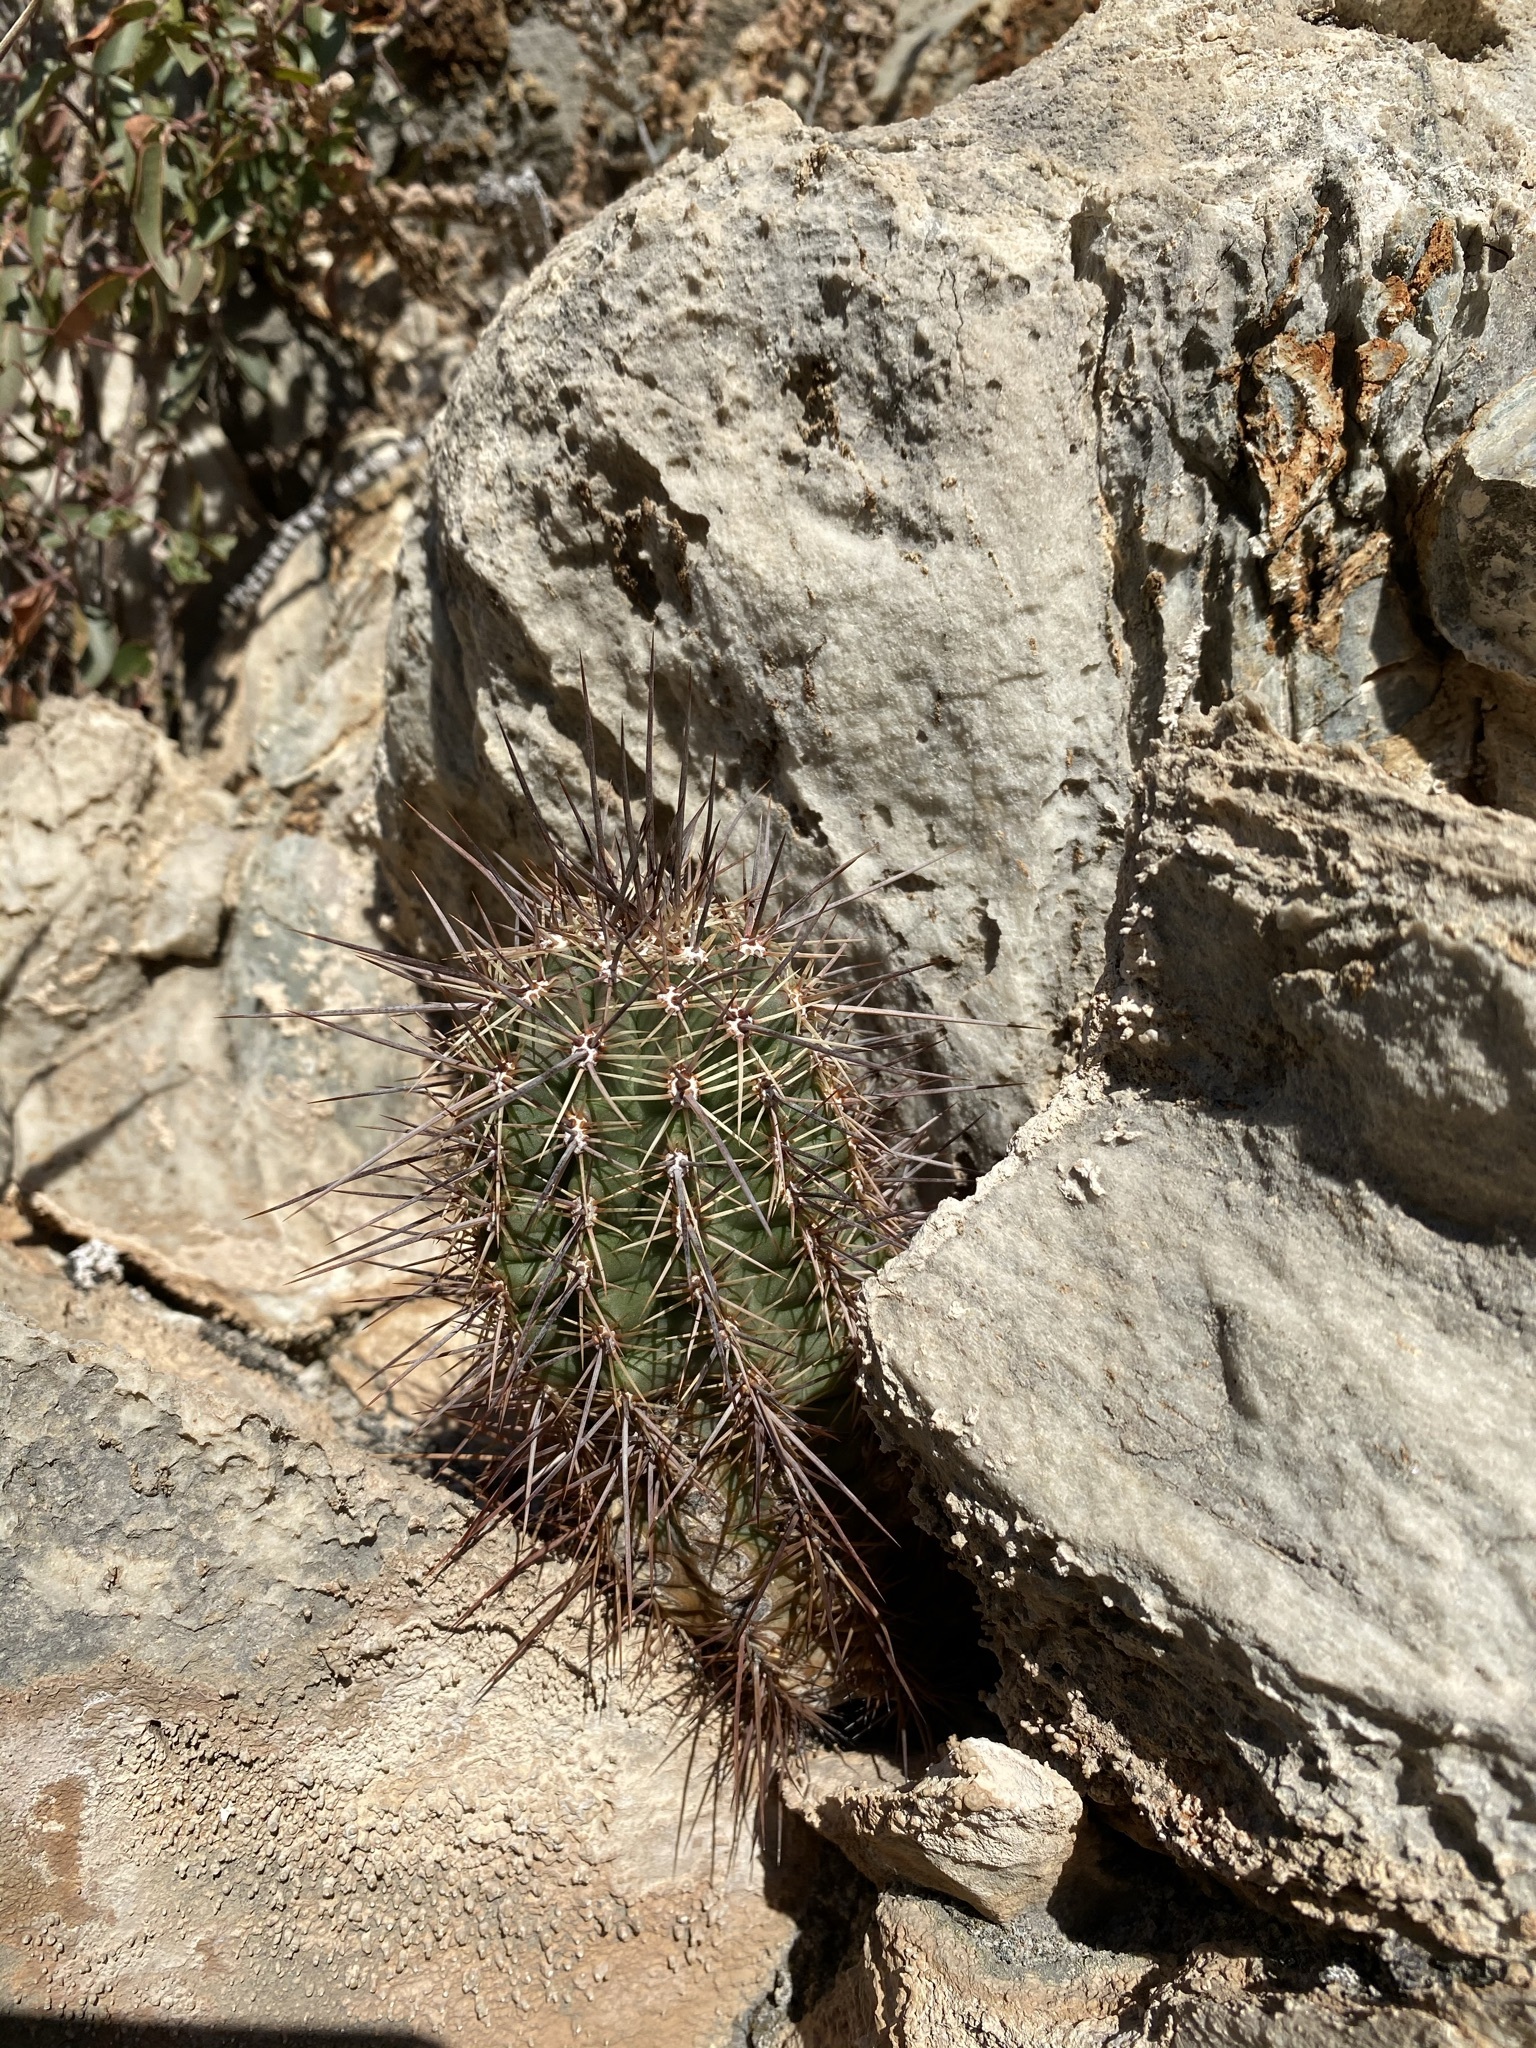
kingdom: Plantae
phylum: Tracheophyta
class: Magnoliopsida
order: Caryophyllales
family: Cactaceae
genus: Echinocereus
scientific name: Echinocereus arizonicus
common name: Arizona hedgehog cactus
